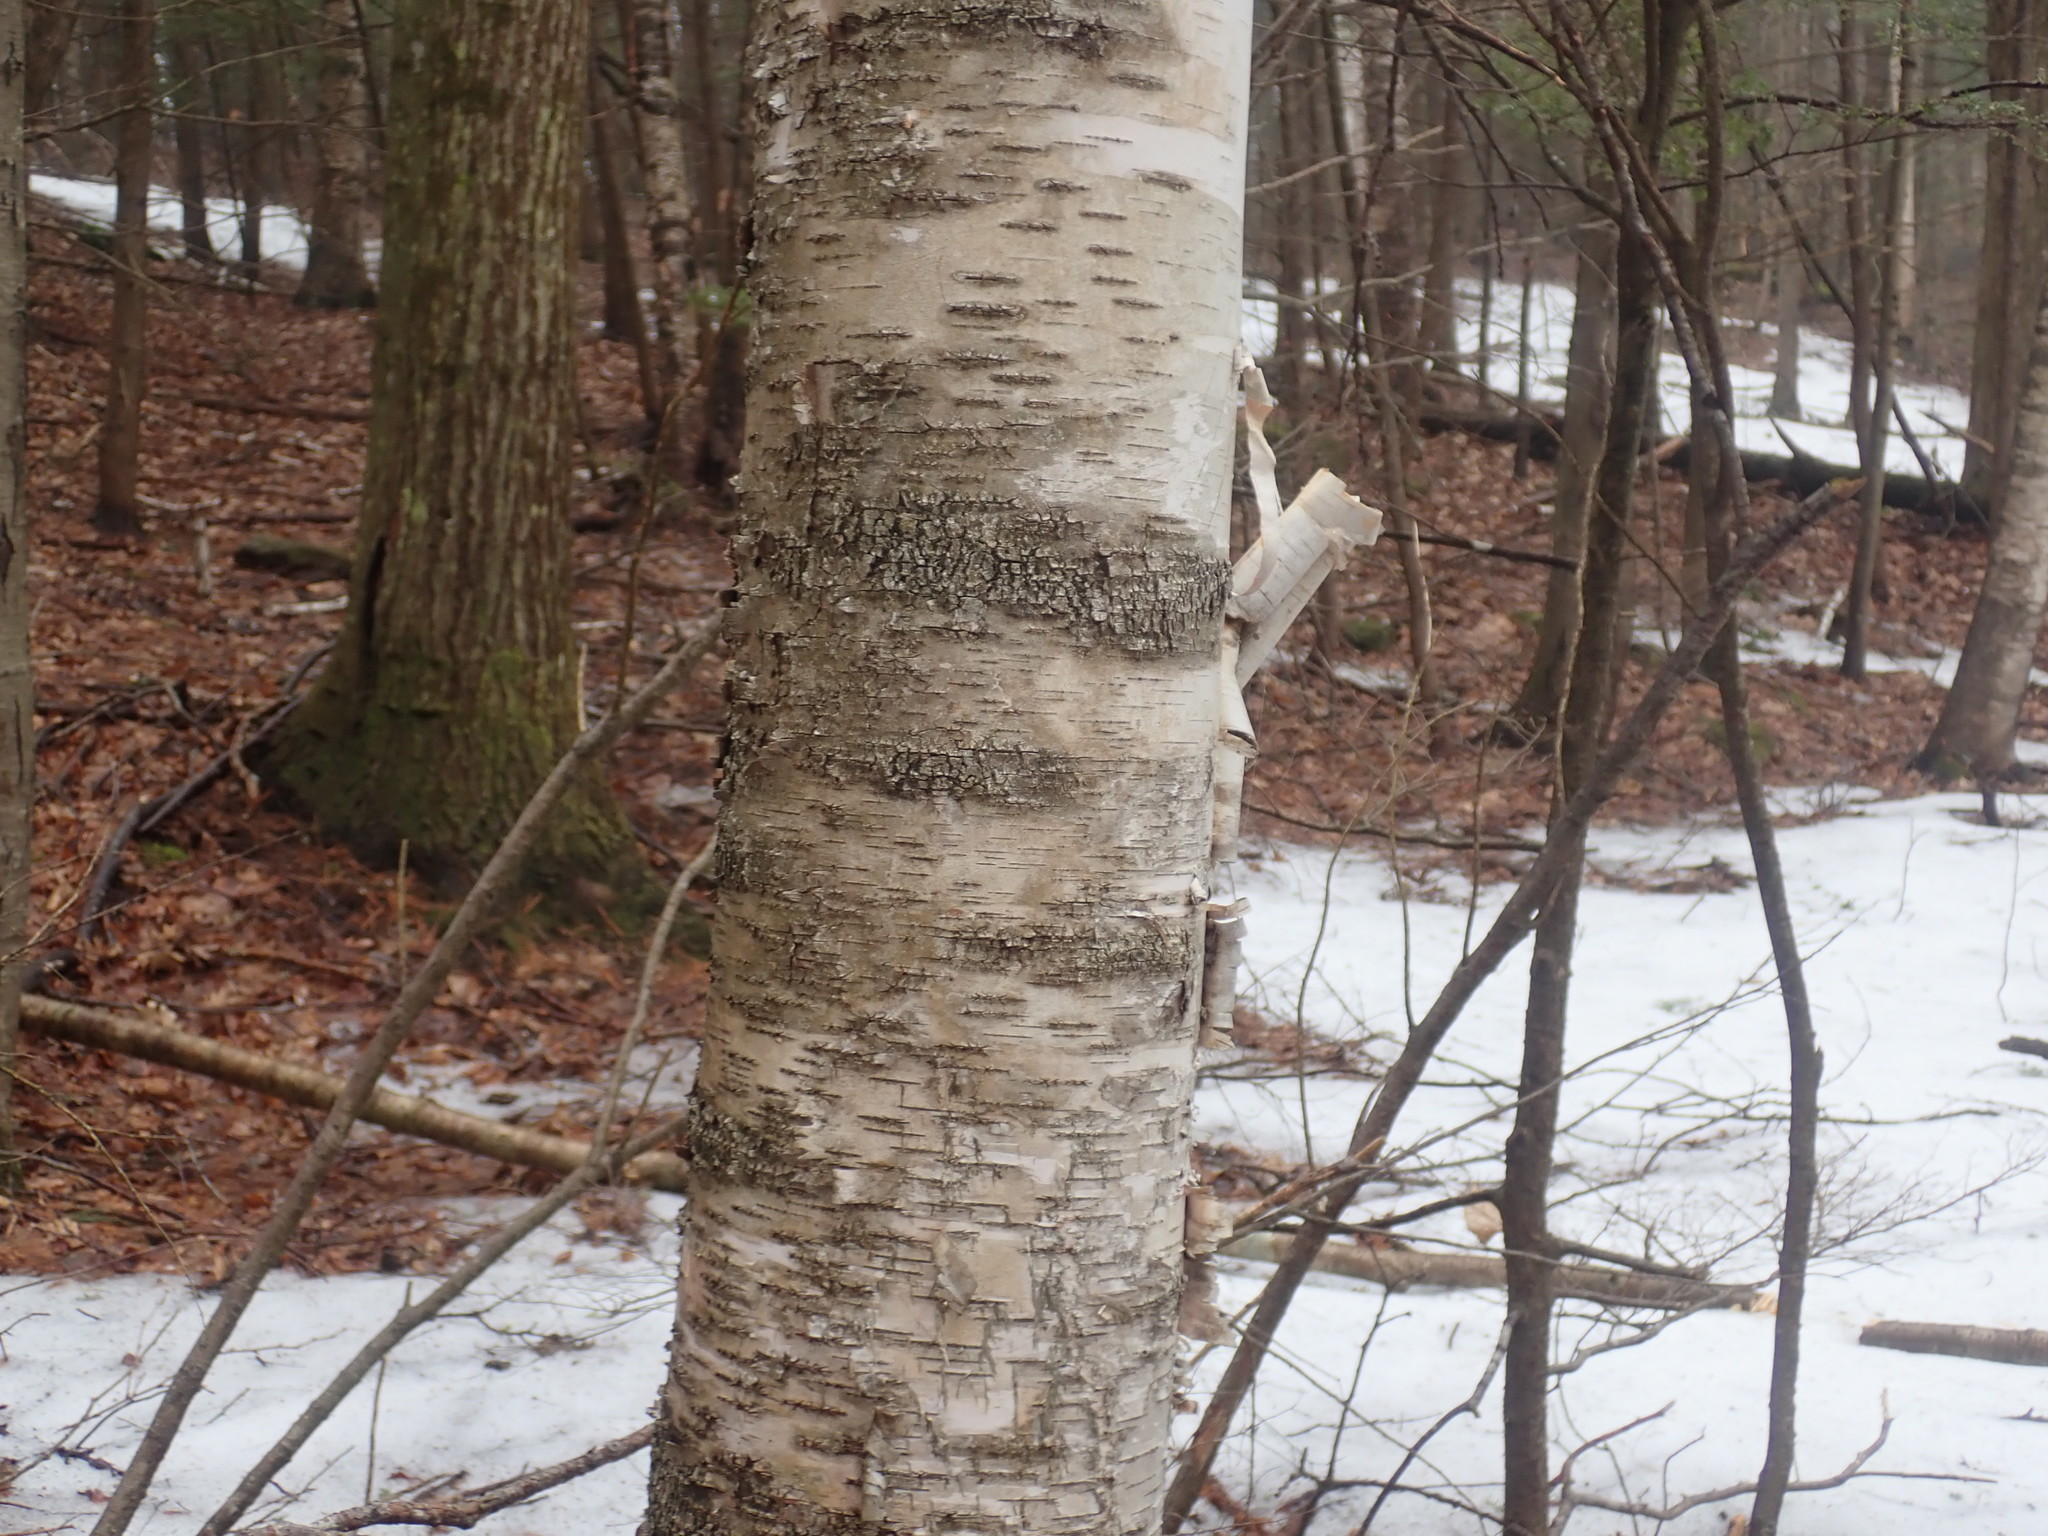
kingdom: Plantae
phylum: Tracheophyta
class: Magnoliopsida
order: Fagales
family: Betulaceae
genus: Betula
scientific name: Betula papyrifera
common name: Paper birch
